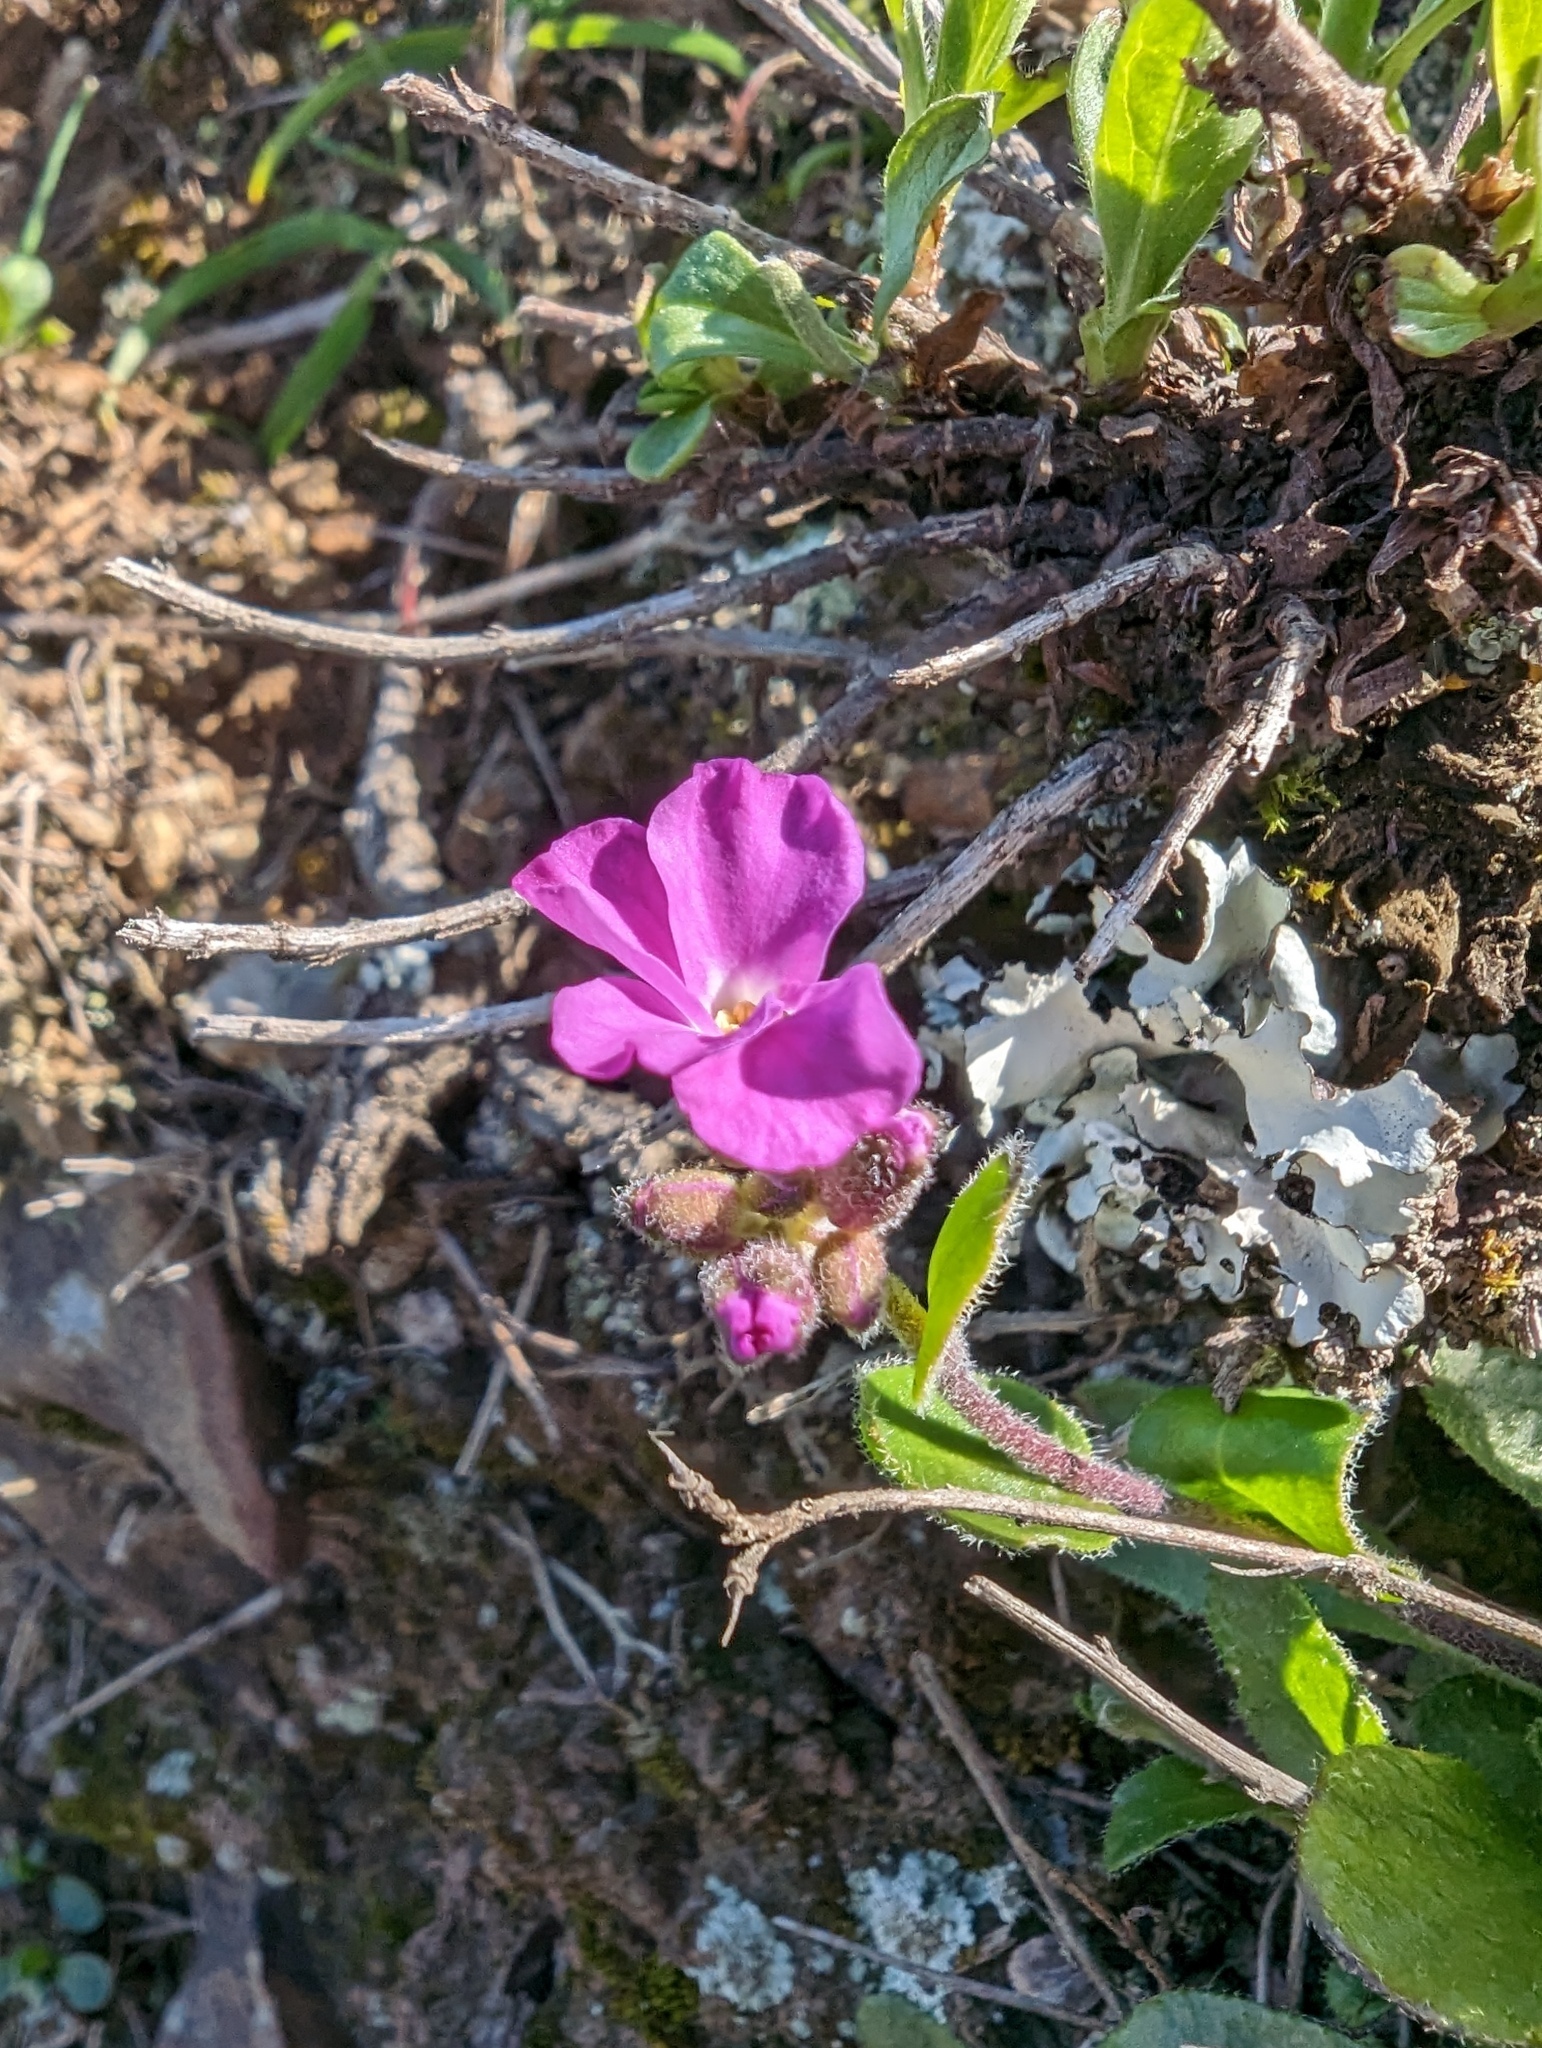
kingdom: Plantae
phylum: Tracheophyta
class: Magnoliopsida
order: Brassicales
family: Brassicaceae
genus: Arabis
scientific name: Arabis blepharophylla
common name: Rose rockcress
